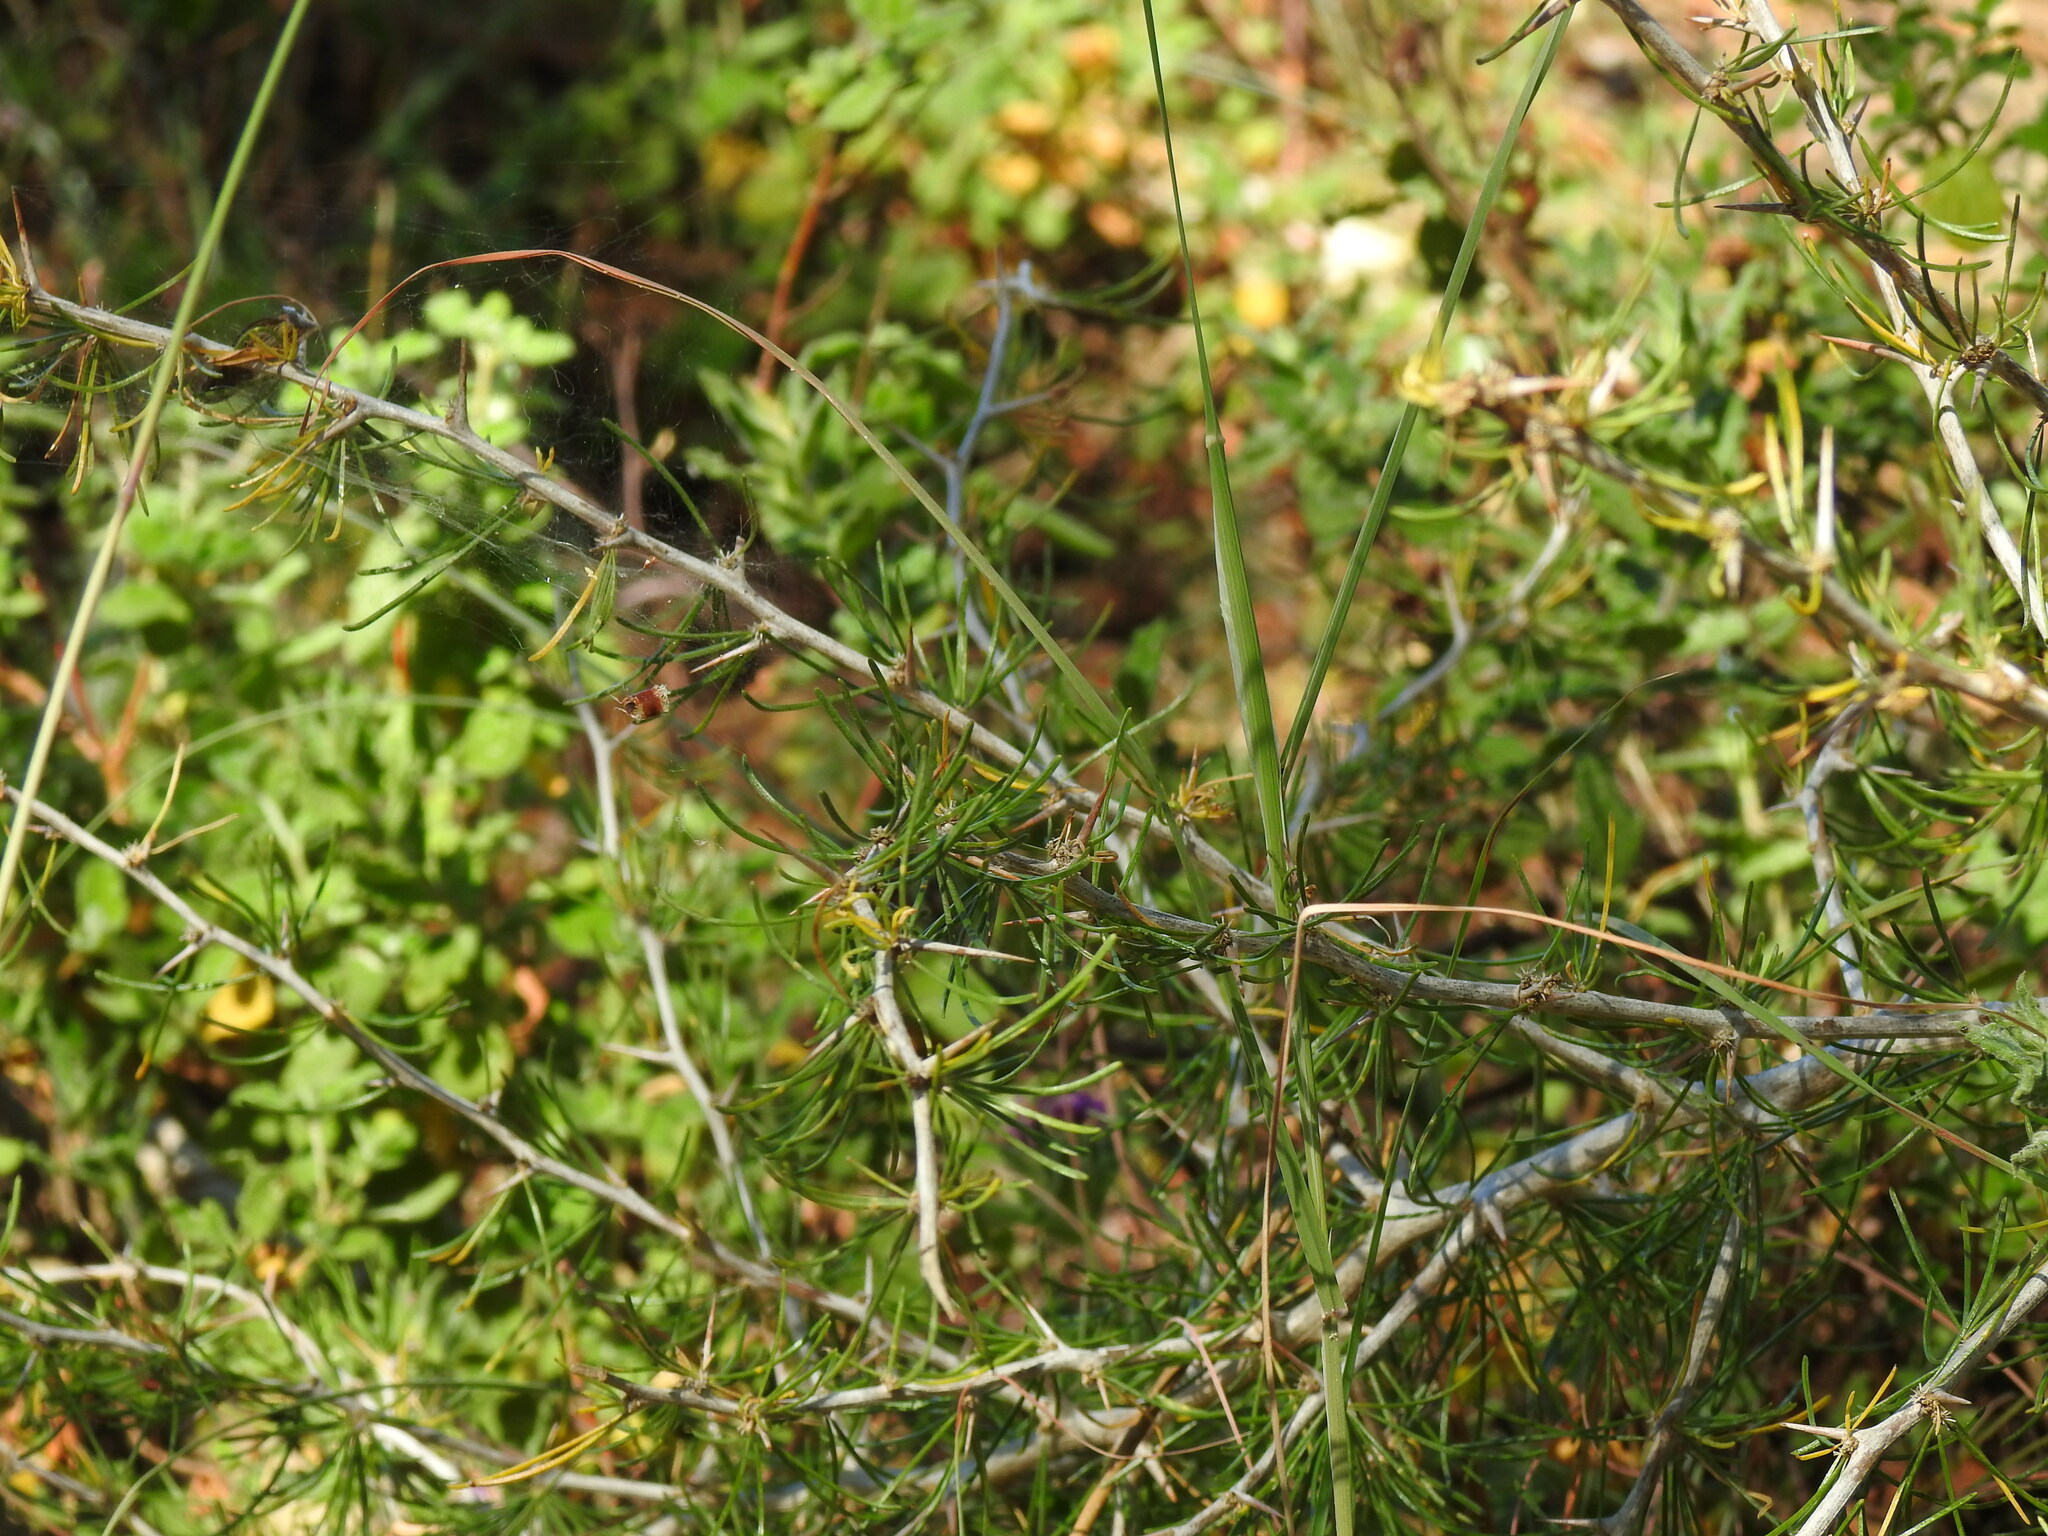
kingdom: Plantae
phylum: Tracheophyta
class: Liliopsida
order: Asparagales
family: Asparagaceae
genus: Asparagus
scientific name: Asparagus albus
